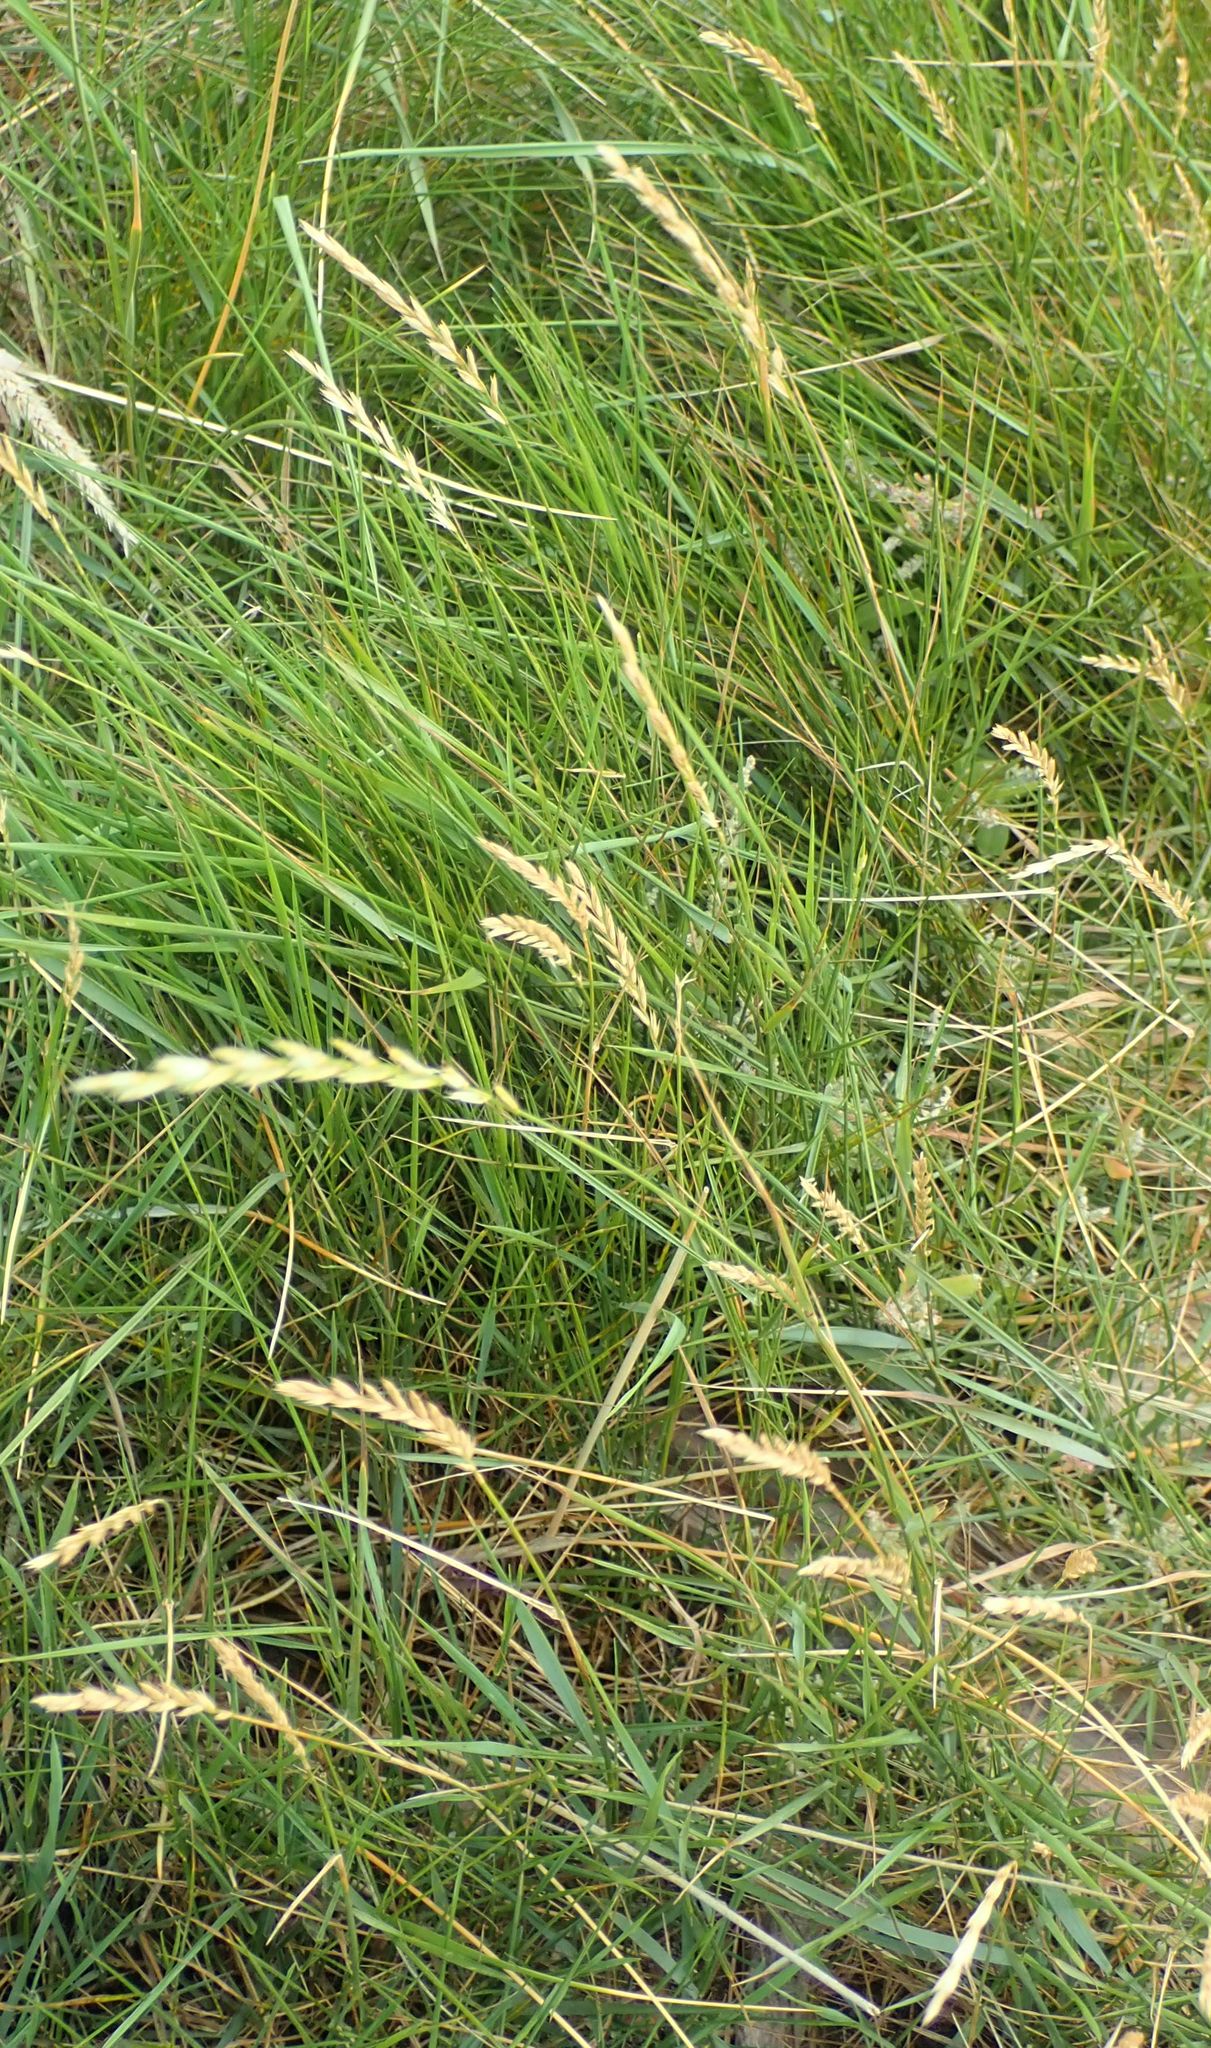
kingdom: Plantae
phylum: Tracheophyta
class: Liliopsida
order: Poales
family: Poaceae
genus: Lolium
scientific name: Lolium perenne
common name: Perennial ryegrass
